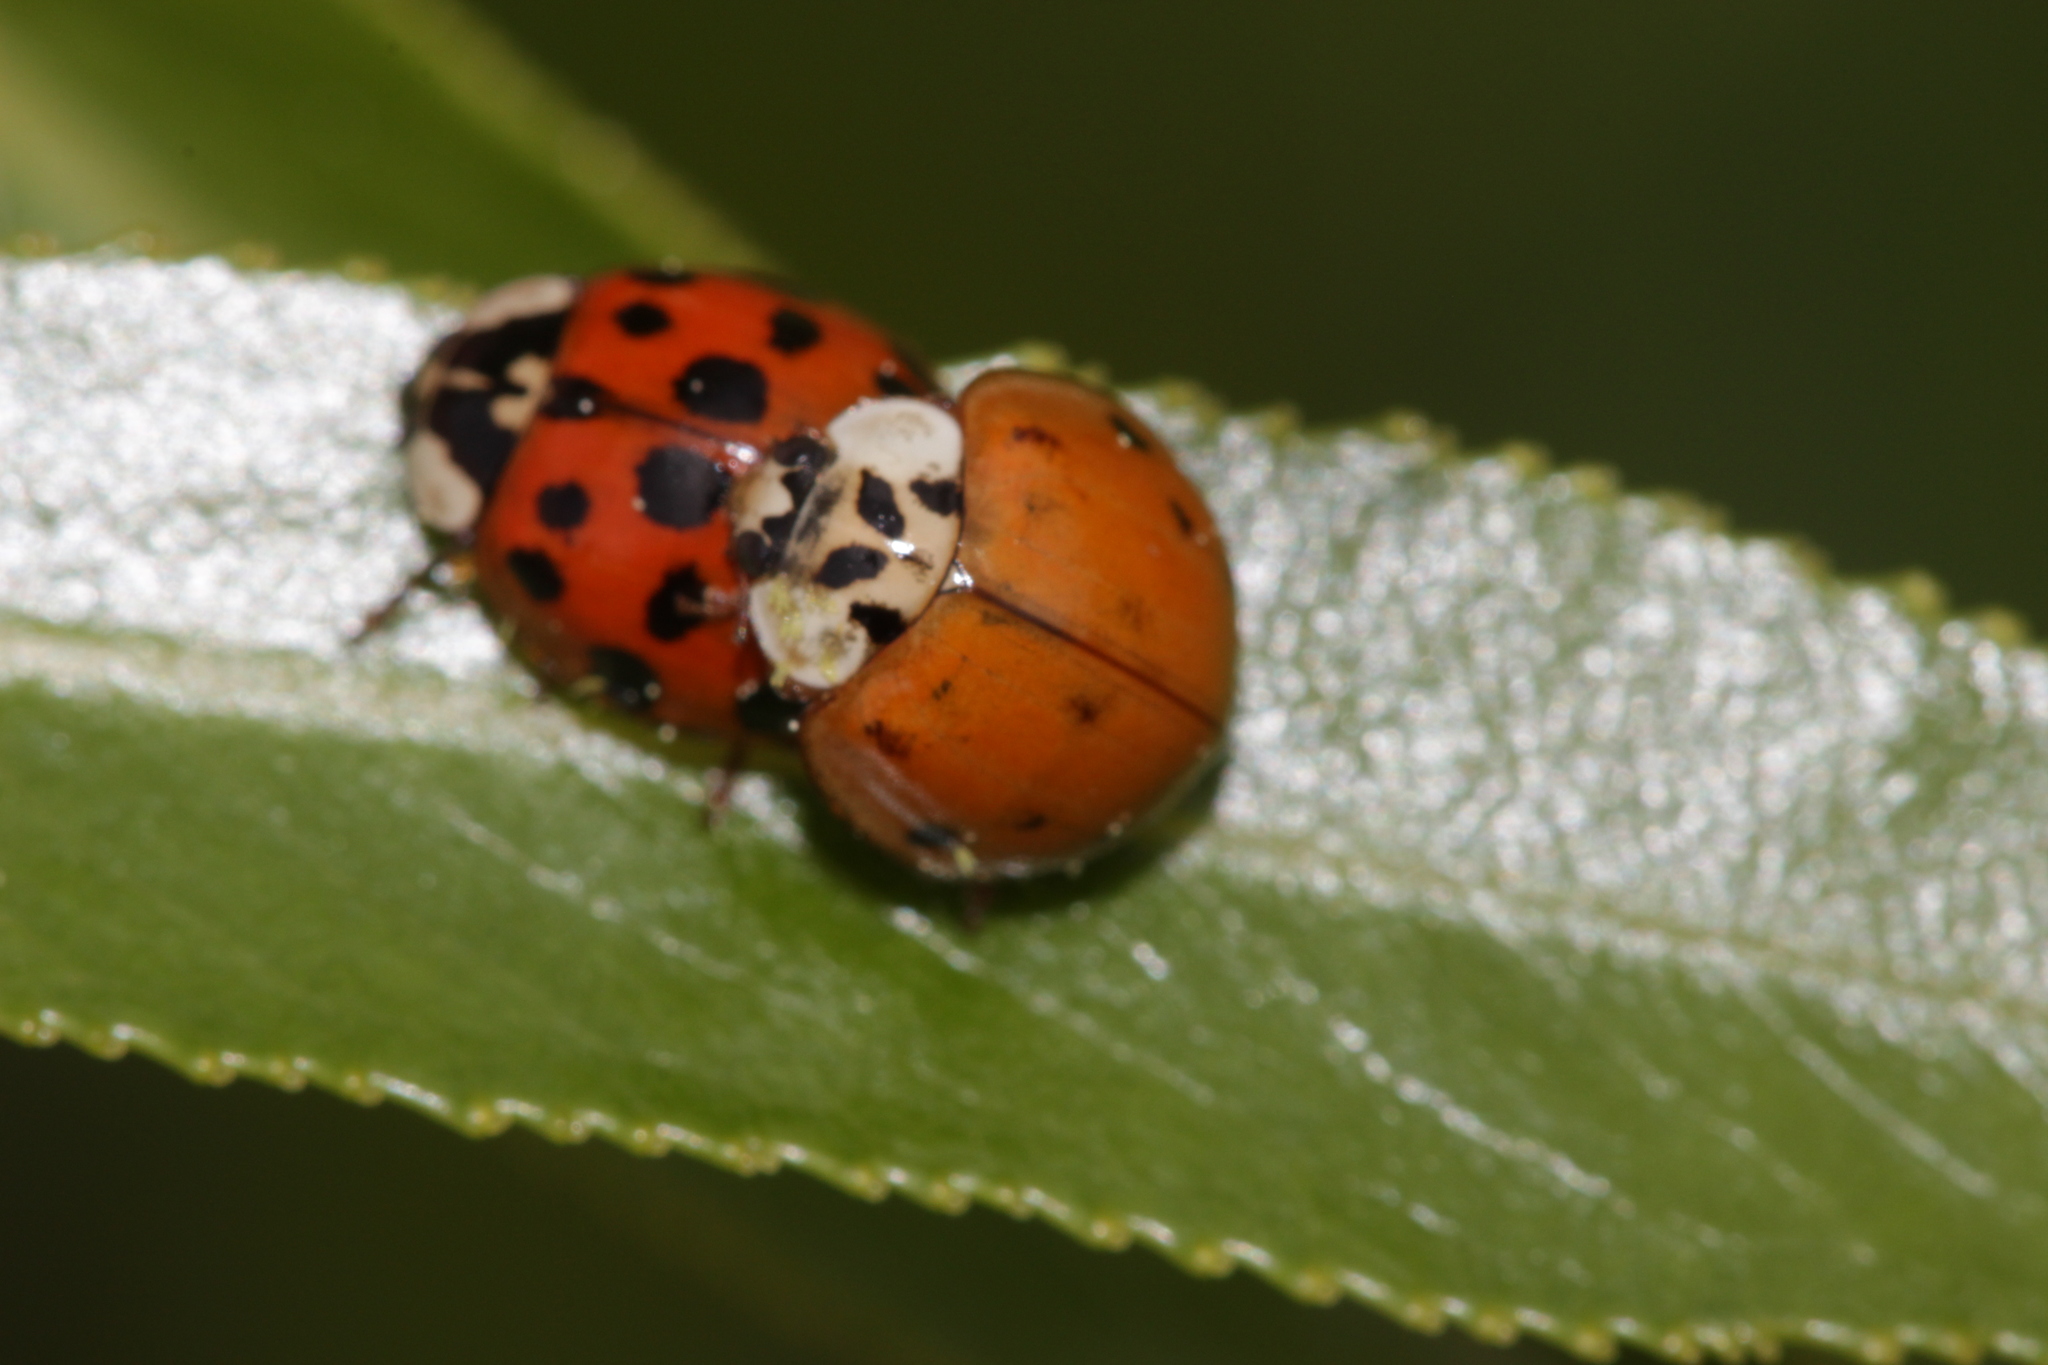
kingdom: Animalia
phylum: Arthropoda
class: Insecta
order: Coleoptera
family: Coccinellidae
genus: Harmonia
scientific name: Harmonia axyridis
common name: Harlequin ladybird
